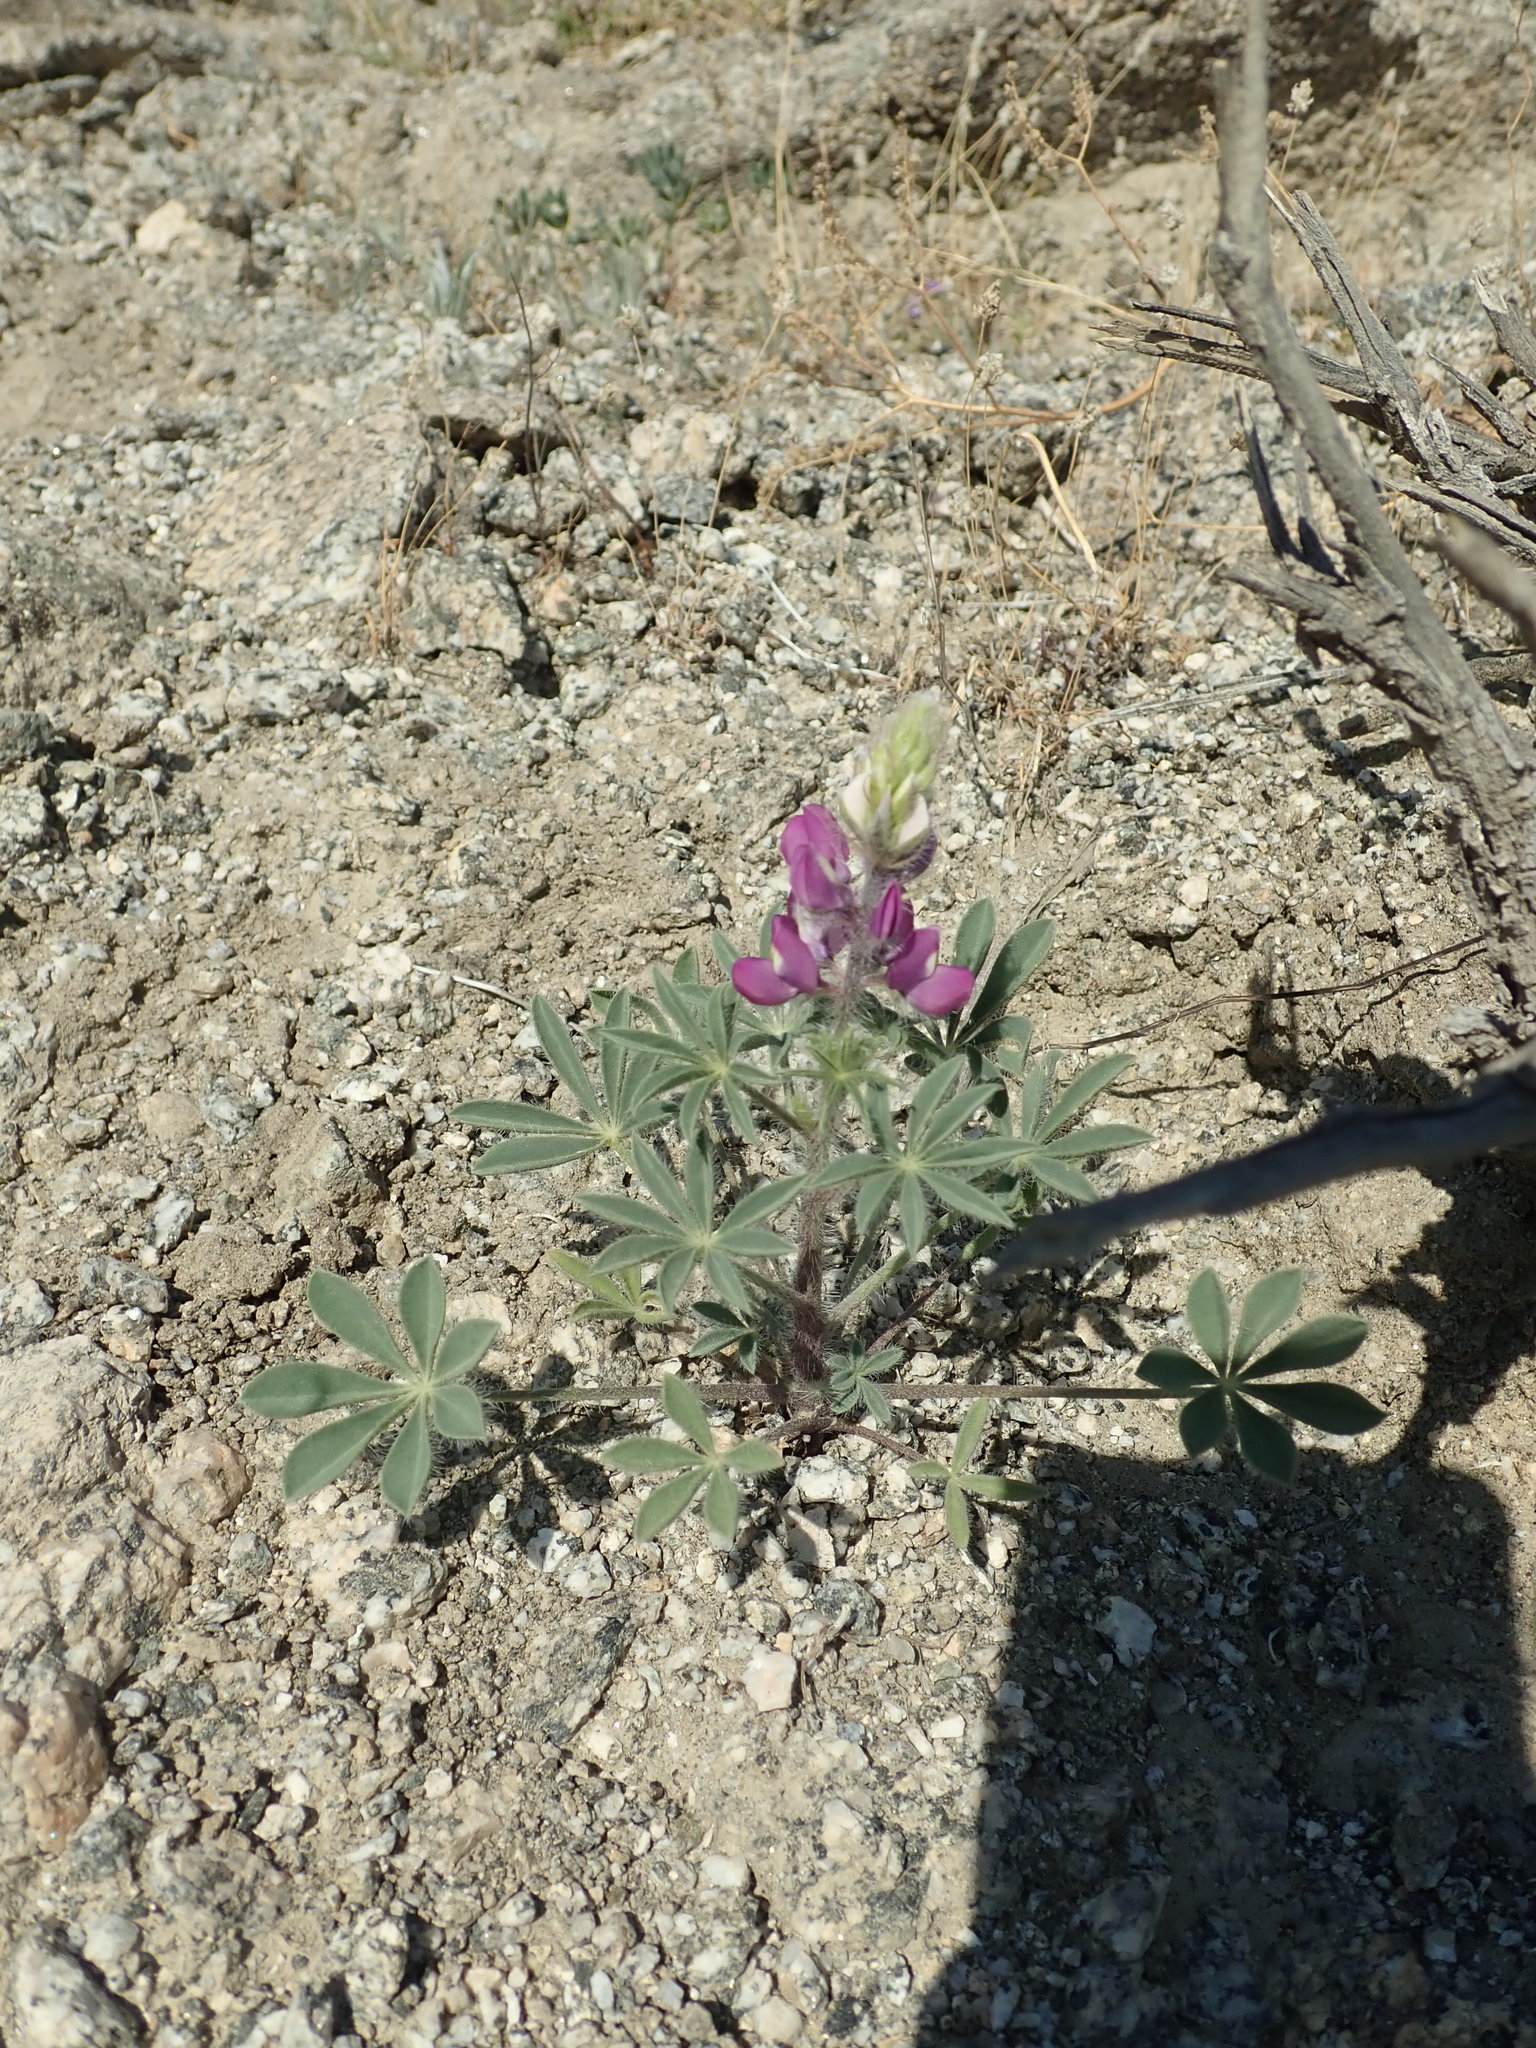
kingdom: Plantae
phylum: Tracheophyta
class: Magnoliopsida
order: Fabales
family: Fabaceae
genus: Lupinus
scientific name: Lupinus arizonicus
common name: Arizona lupine
